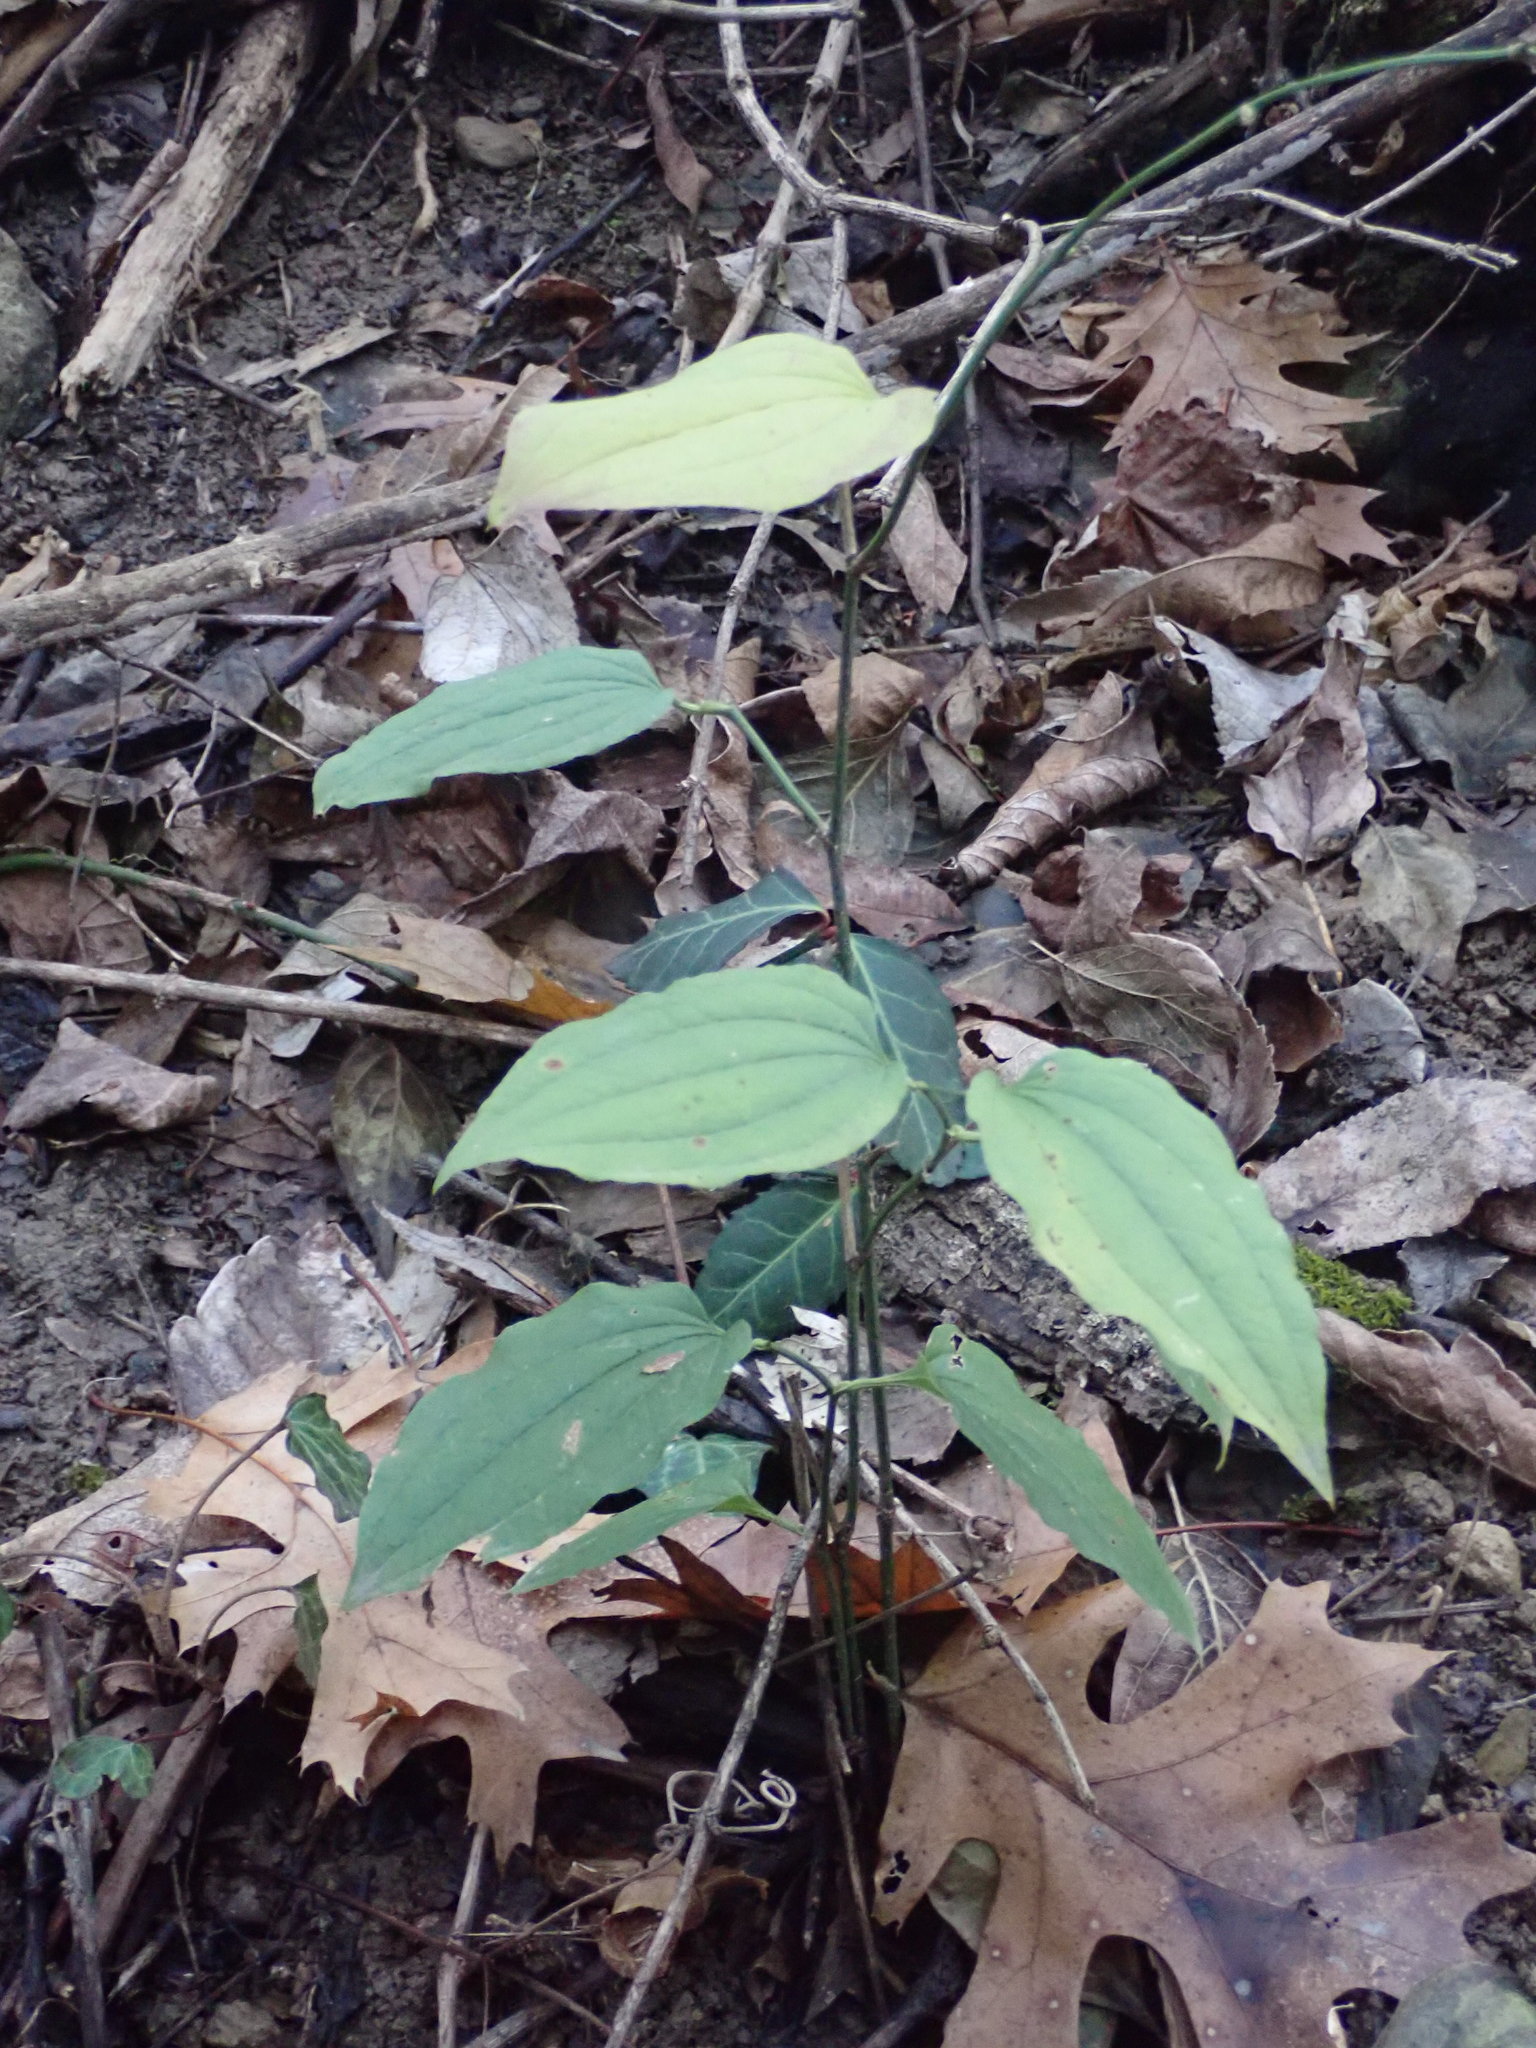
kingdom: Plantae
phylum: Tracheophyta
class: Liliopsida
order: Liliales
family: Smilacaceae
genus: Smilax
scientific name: Smilax tamnoides
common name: Hellfetter
